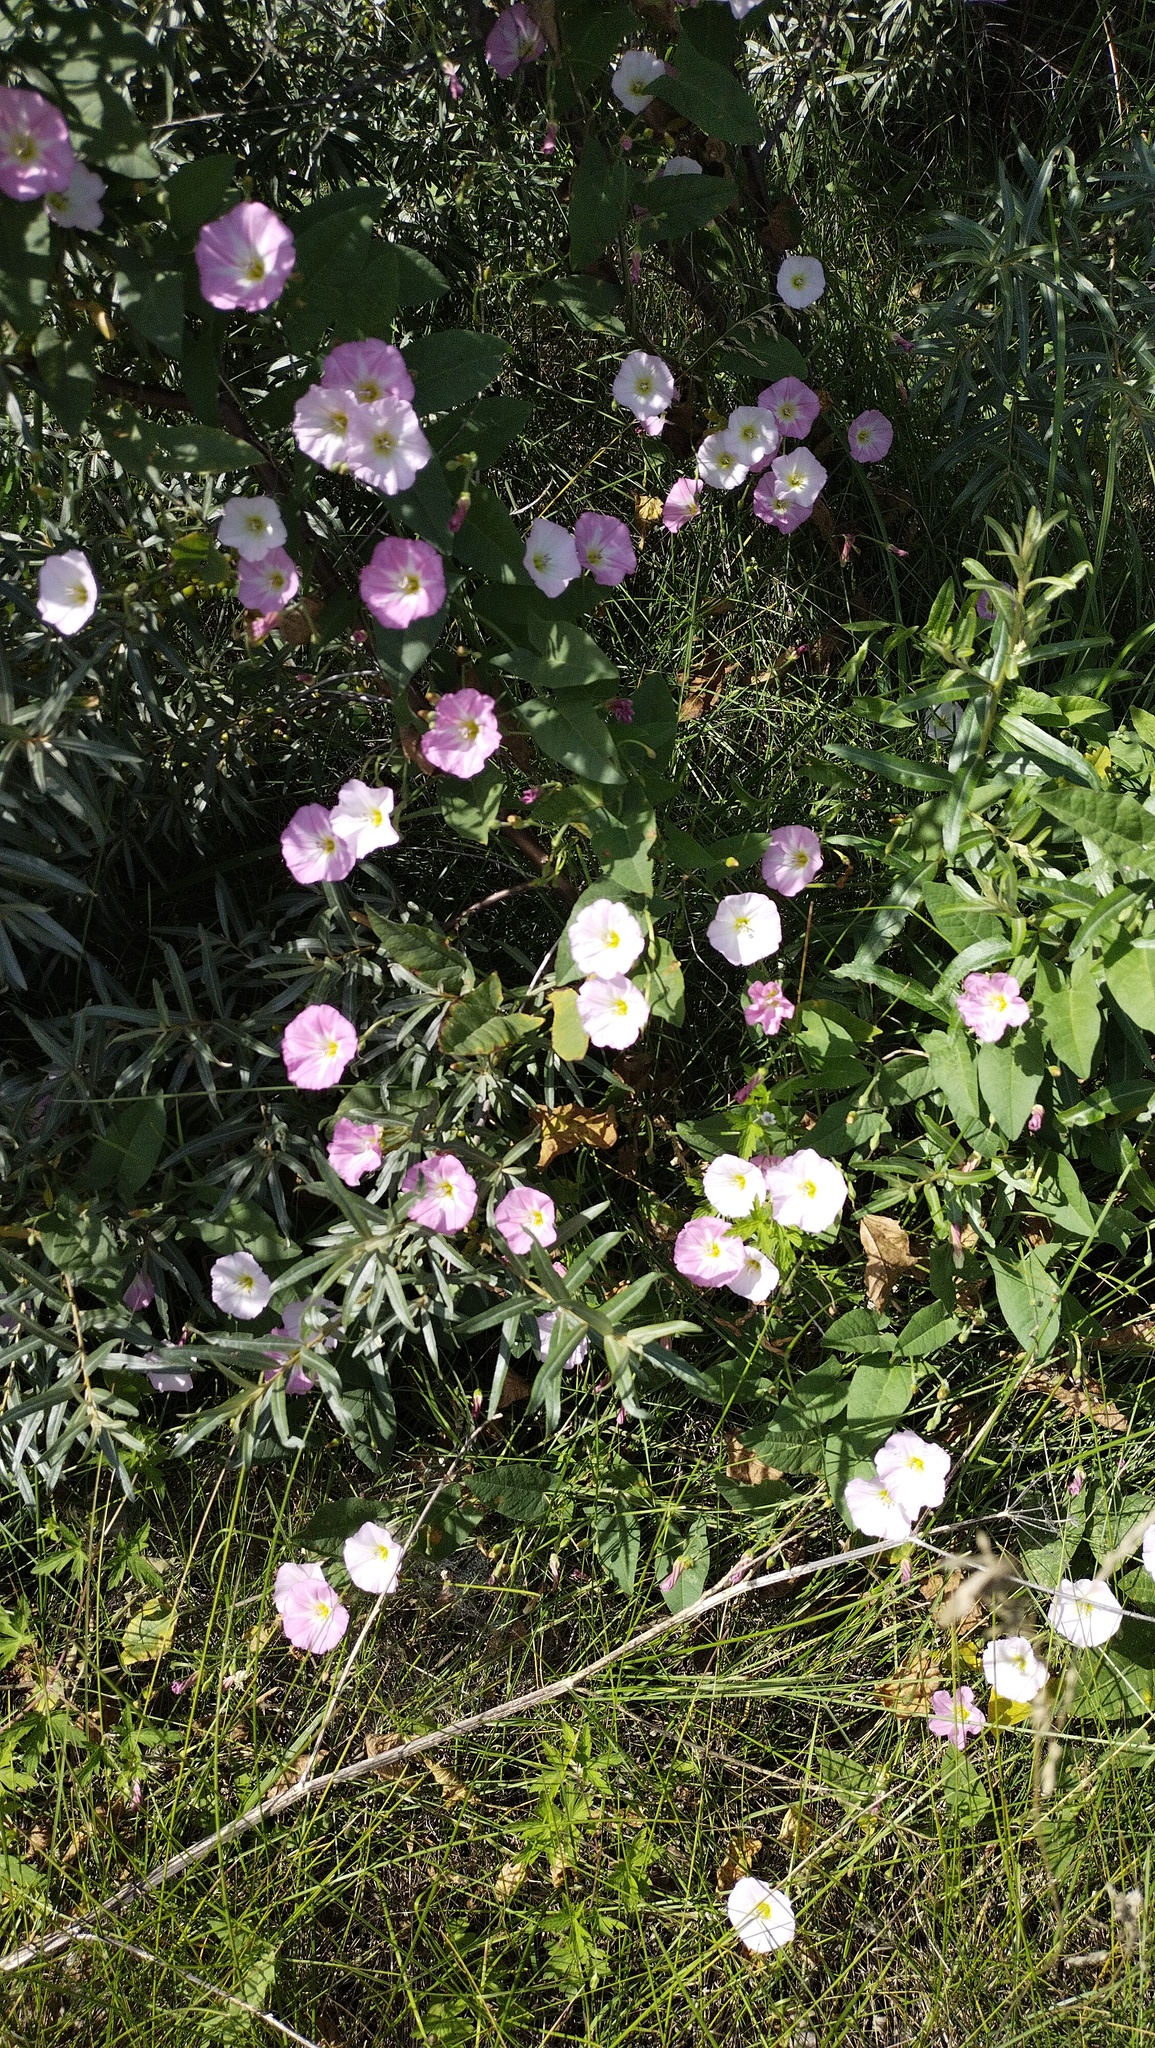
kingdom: Plantae
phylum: Tracheophyta
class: Magnoliopsida
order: Solanales
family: Convolvulaceae
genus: Convolvulus
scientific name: Convolvulus arvensis
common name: Field bindweed
